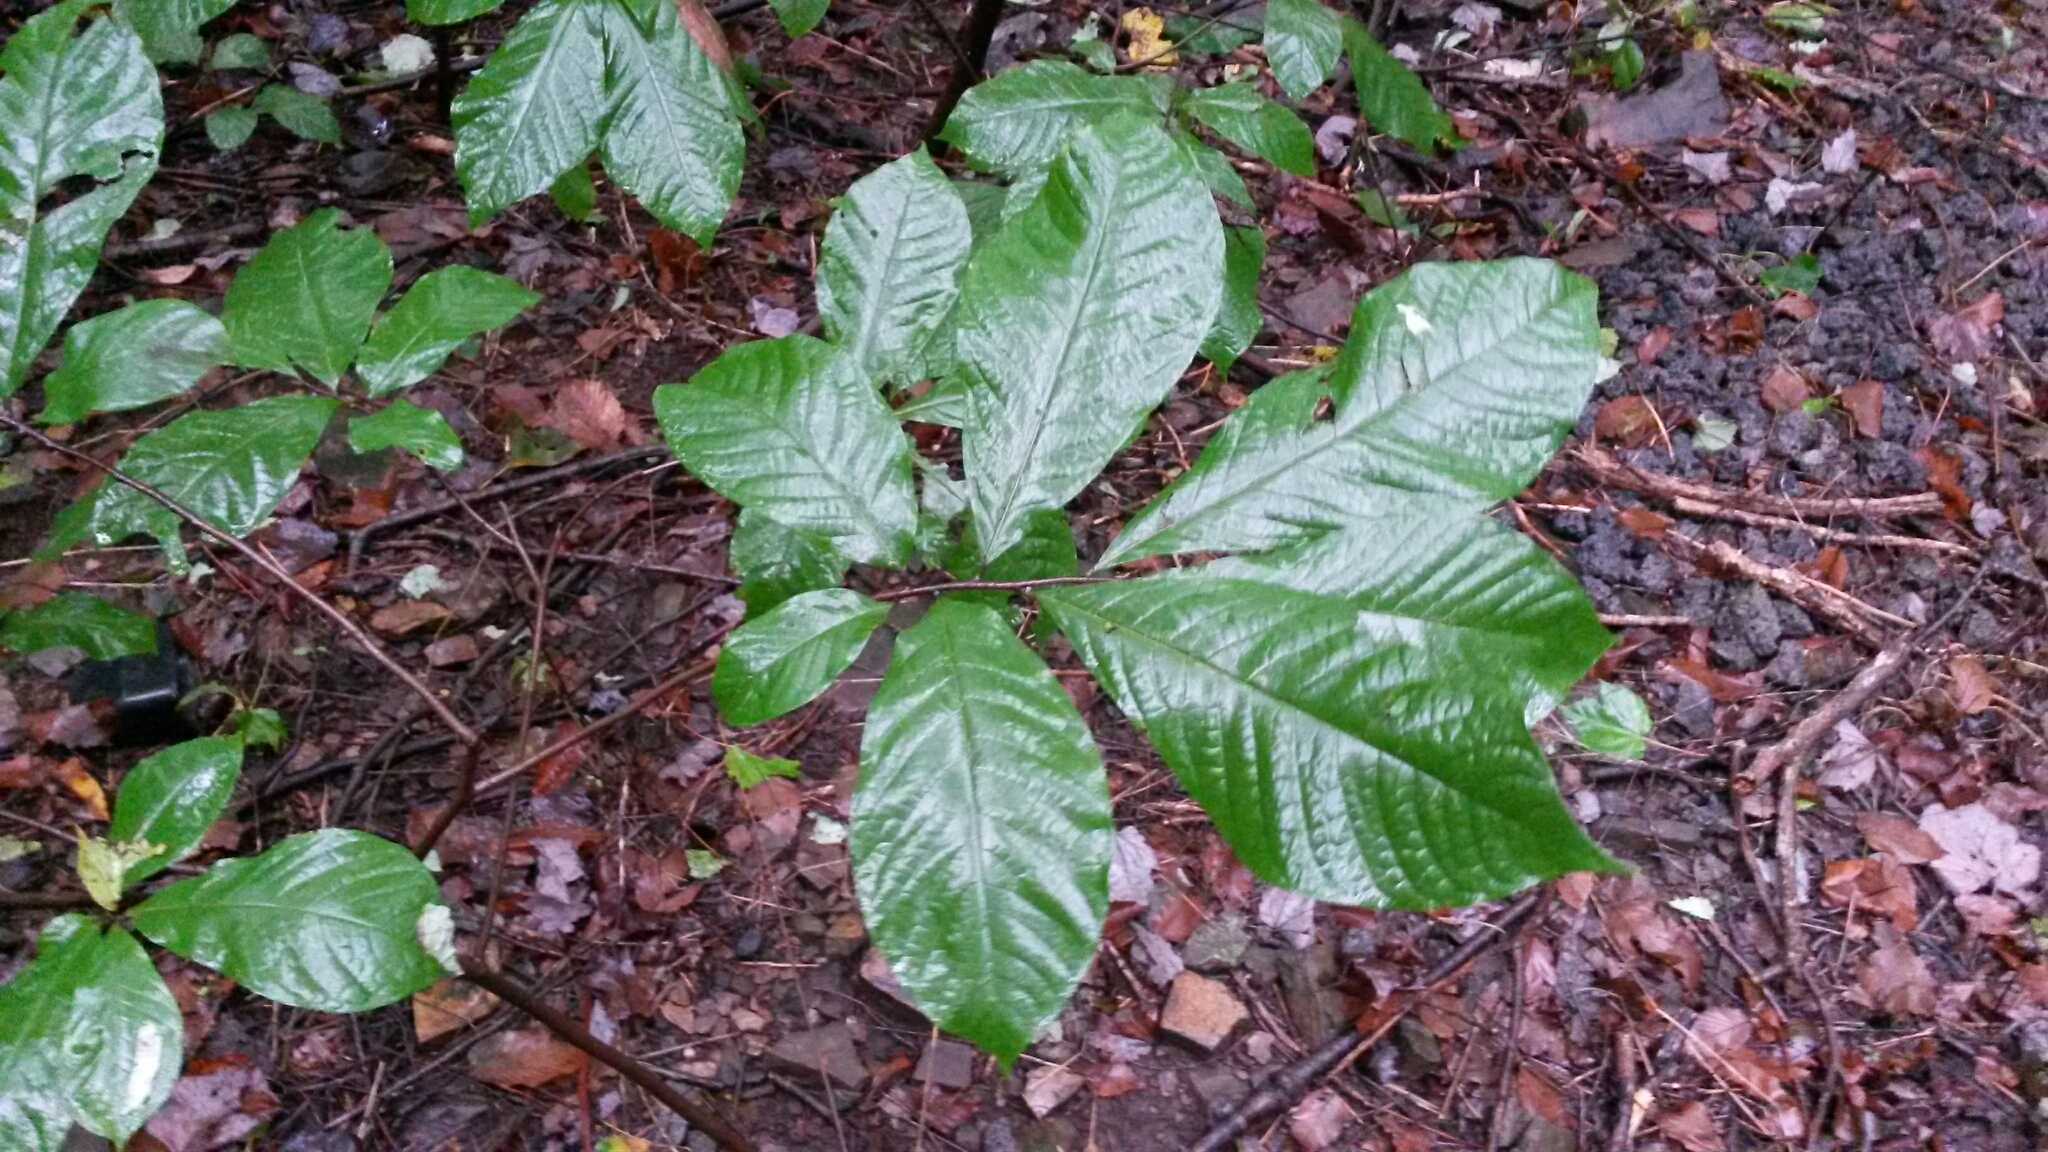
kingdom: Plantae
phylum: Tracheophyta
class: Magnoliopsida
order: Magnoliales
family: Annonaceae
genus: Asimina
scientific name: Asimina triloba
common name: Dog-banana
